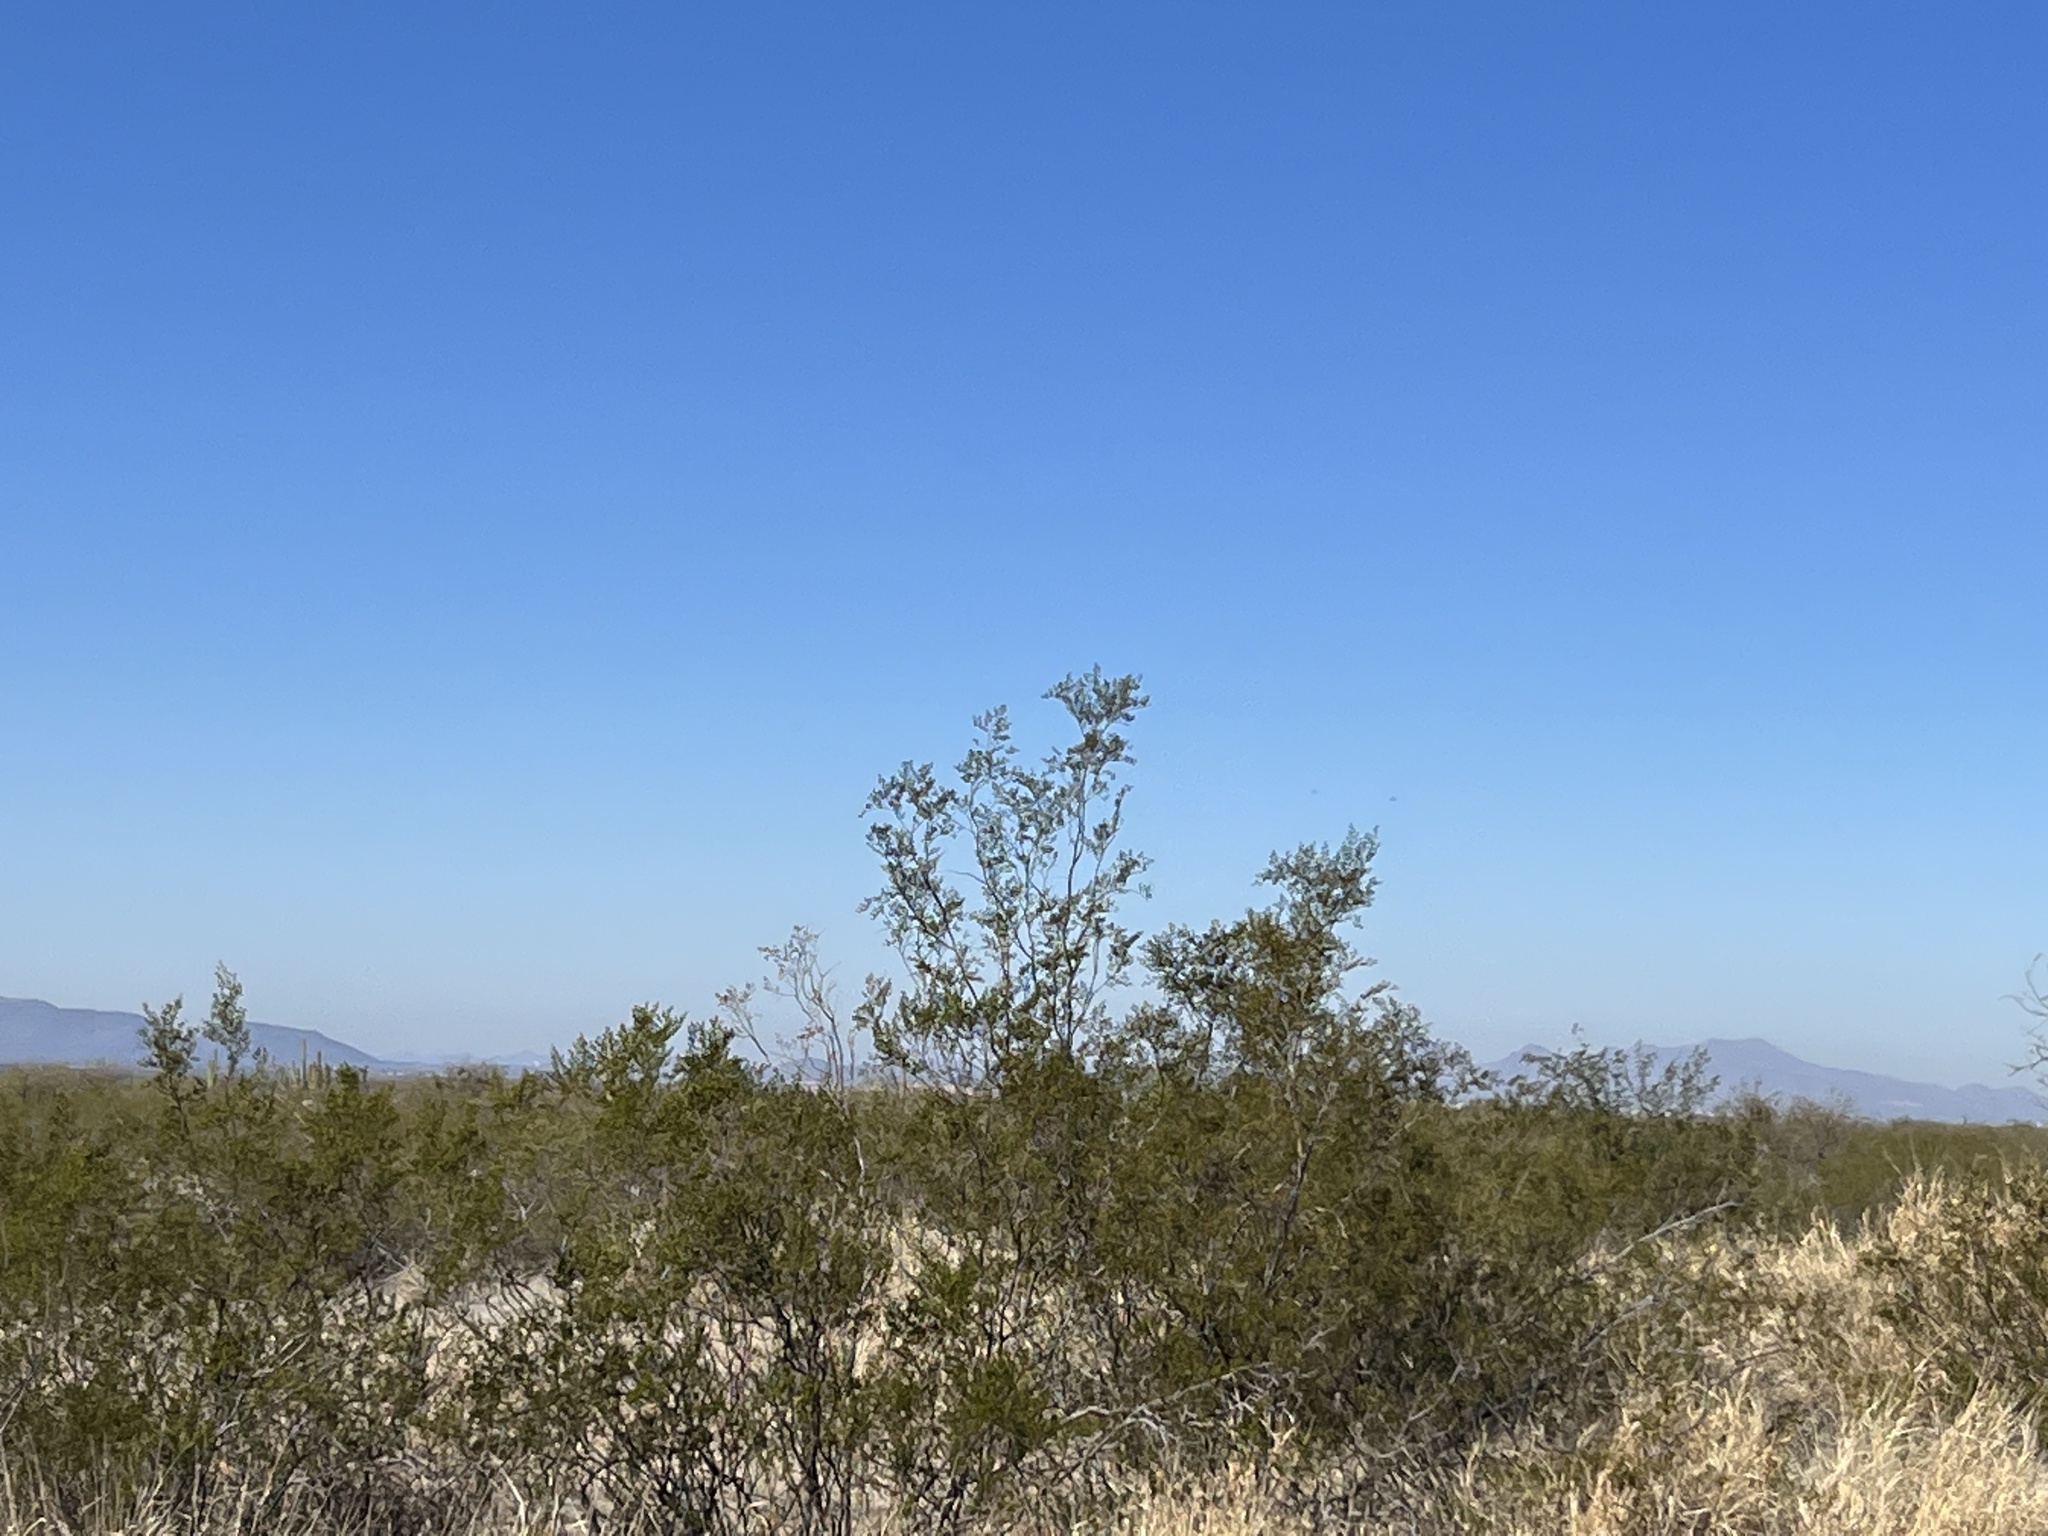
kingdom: Plantae
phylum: Tracheophyta
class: Magnoliopsida
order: Zygophyllales
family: Zygophyllaceae
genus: Larrea
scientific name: Larrea tridentata
